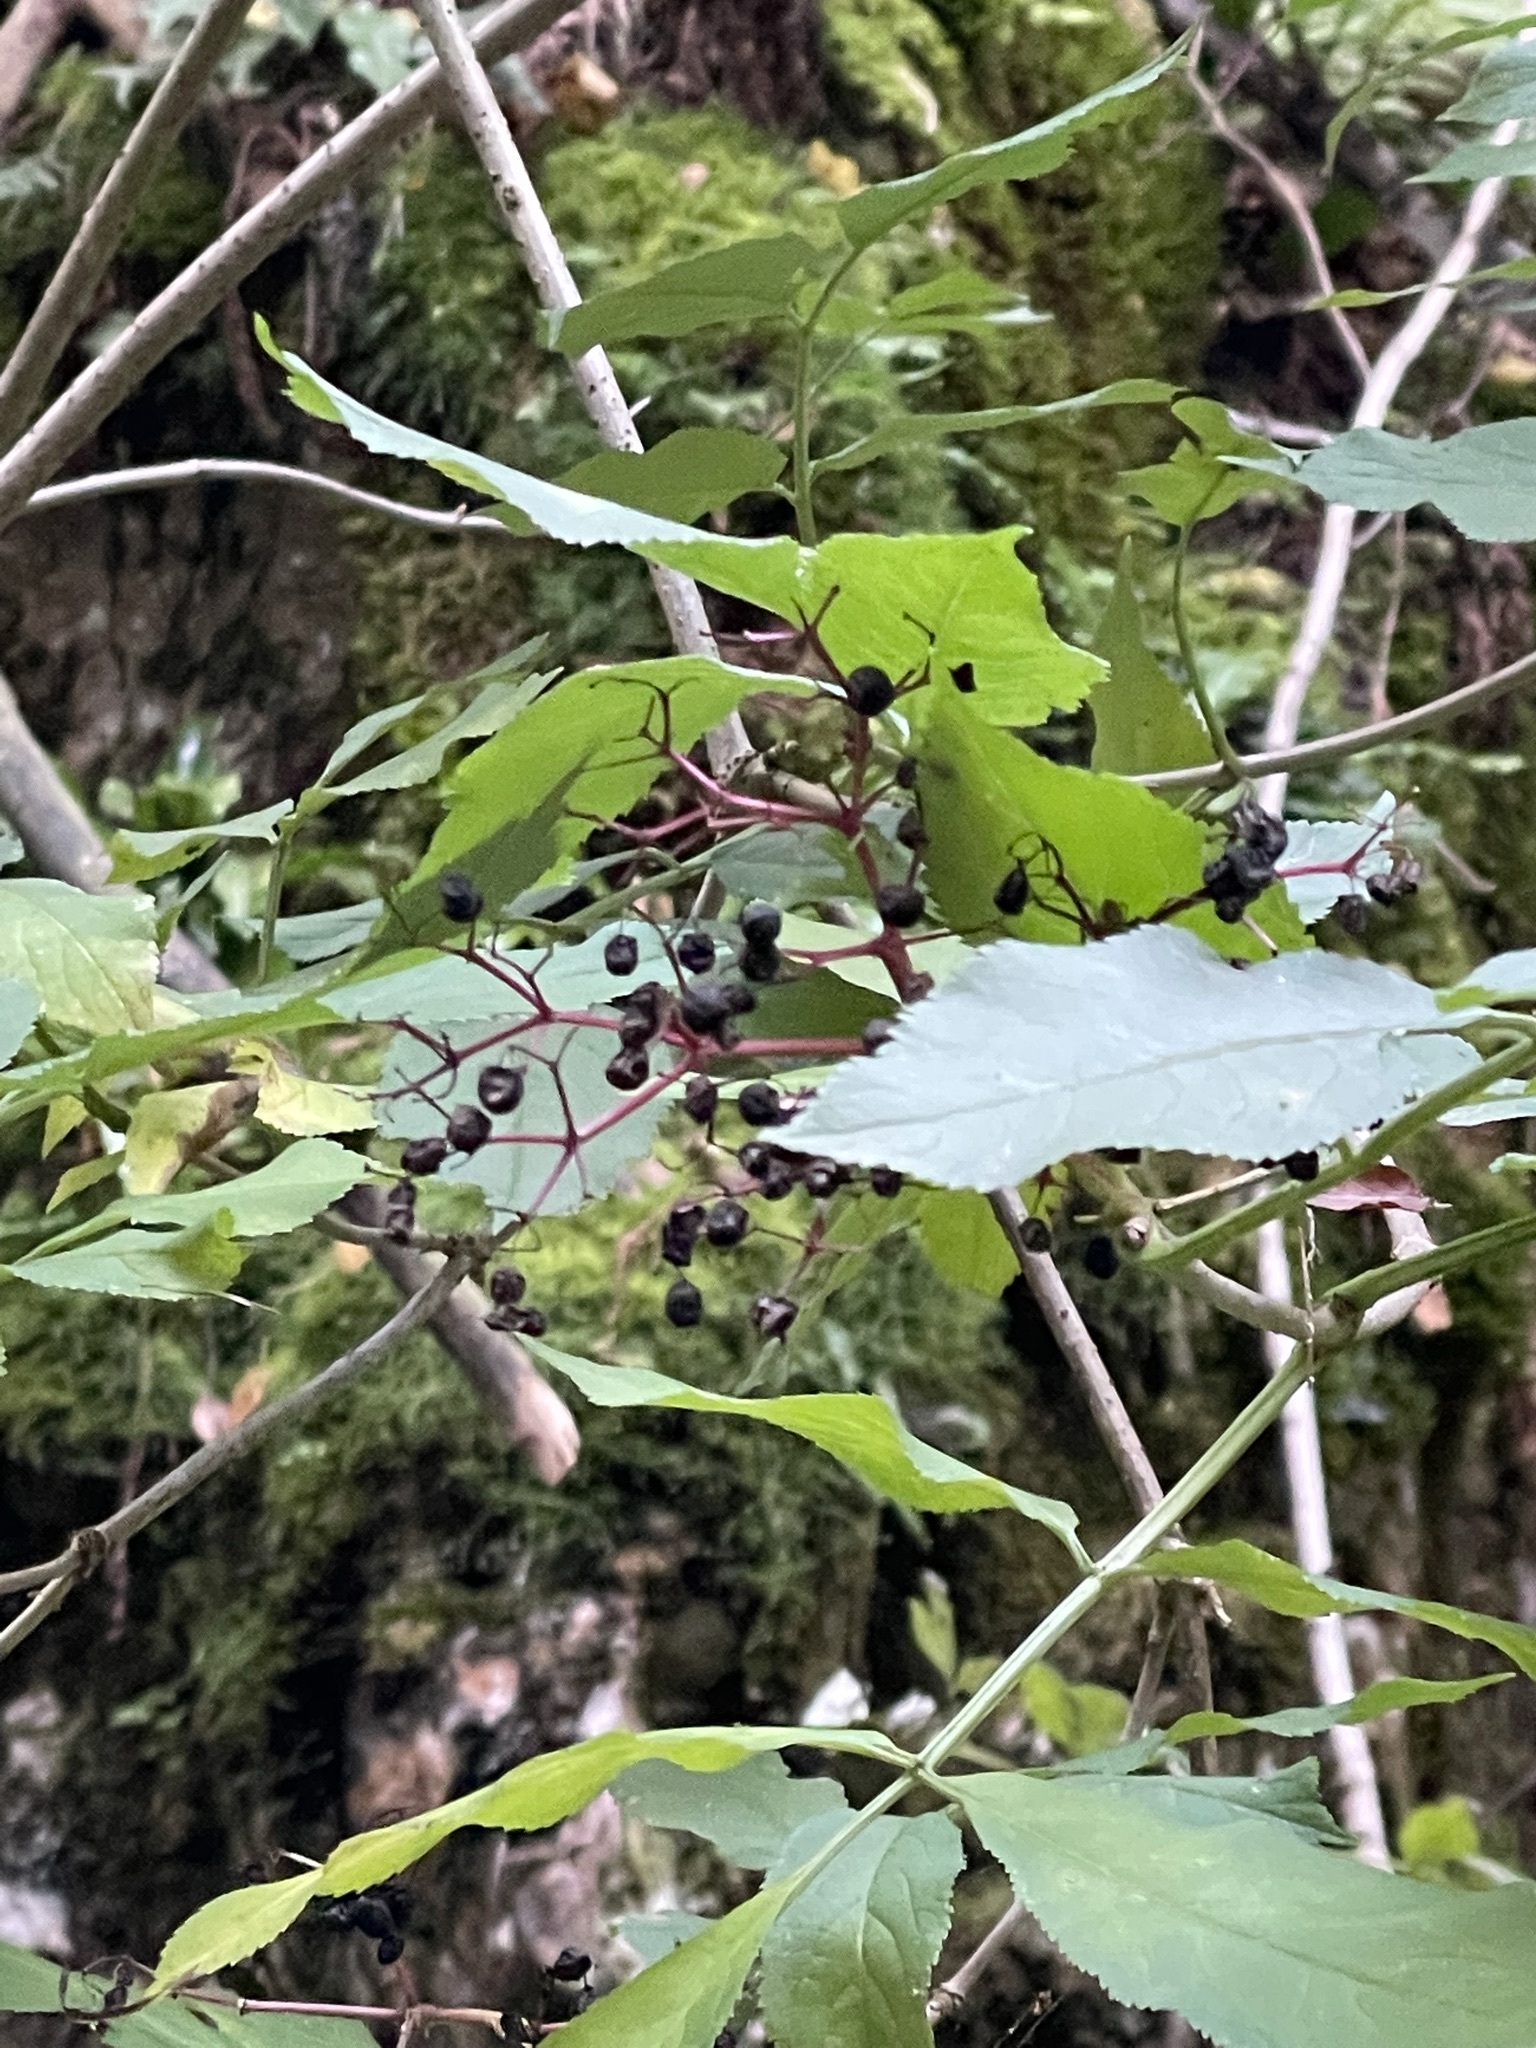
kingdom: Plantae
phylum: Tracheophyta
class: Magnoliopsida
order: Dipsacales
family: Viburnaceae
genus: Sambucus
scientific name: Sambucus nigra
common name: Elder
